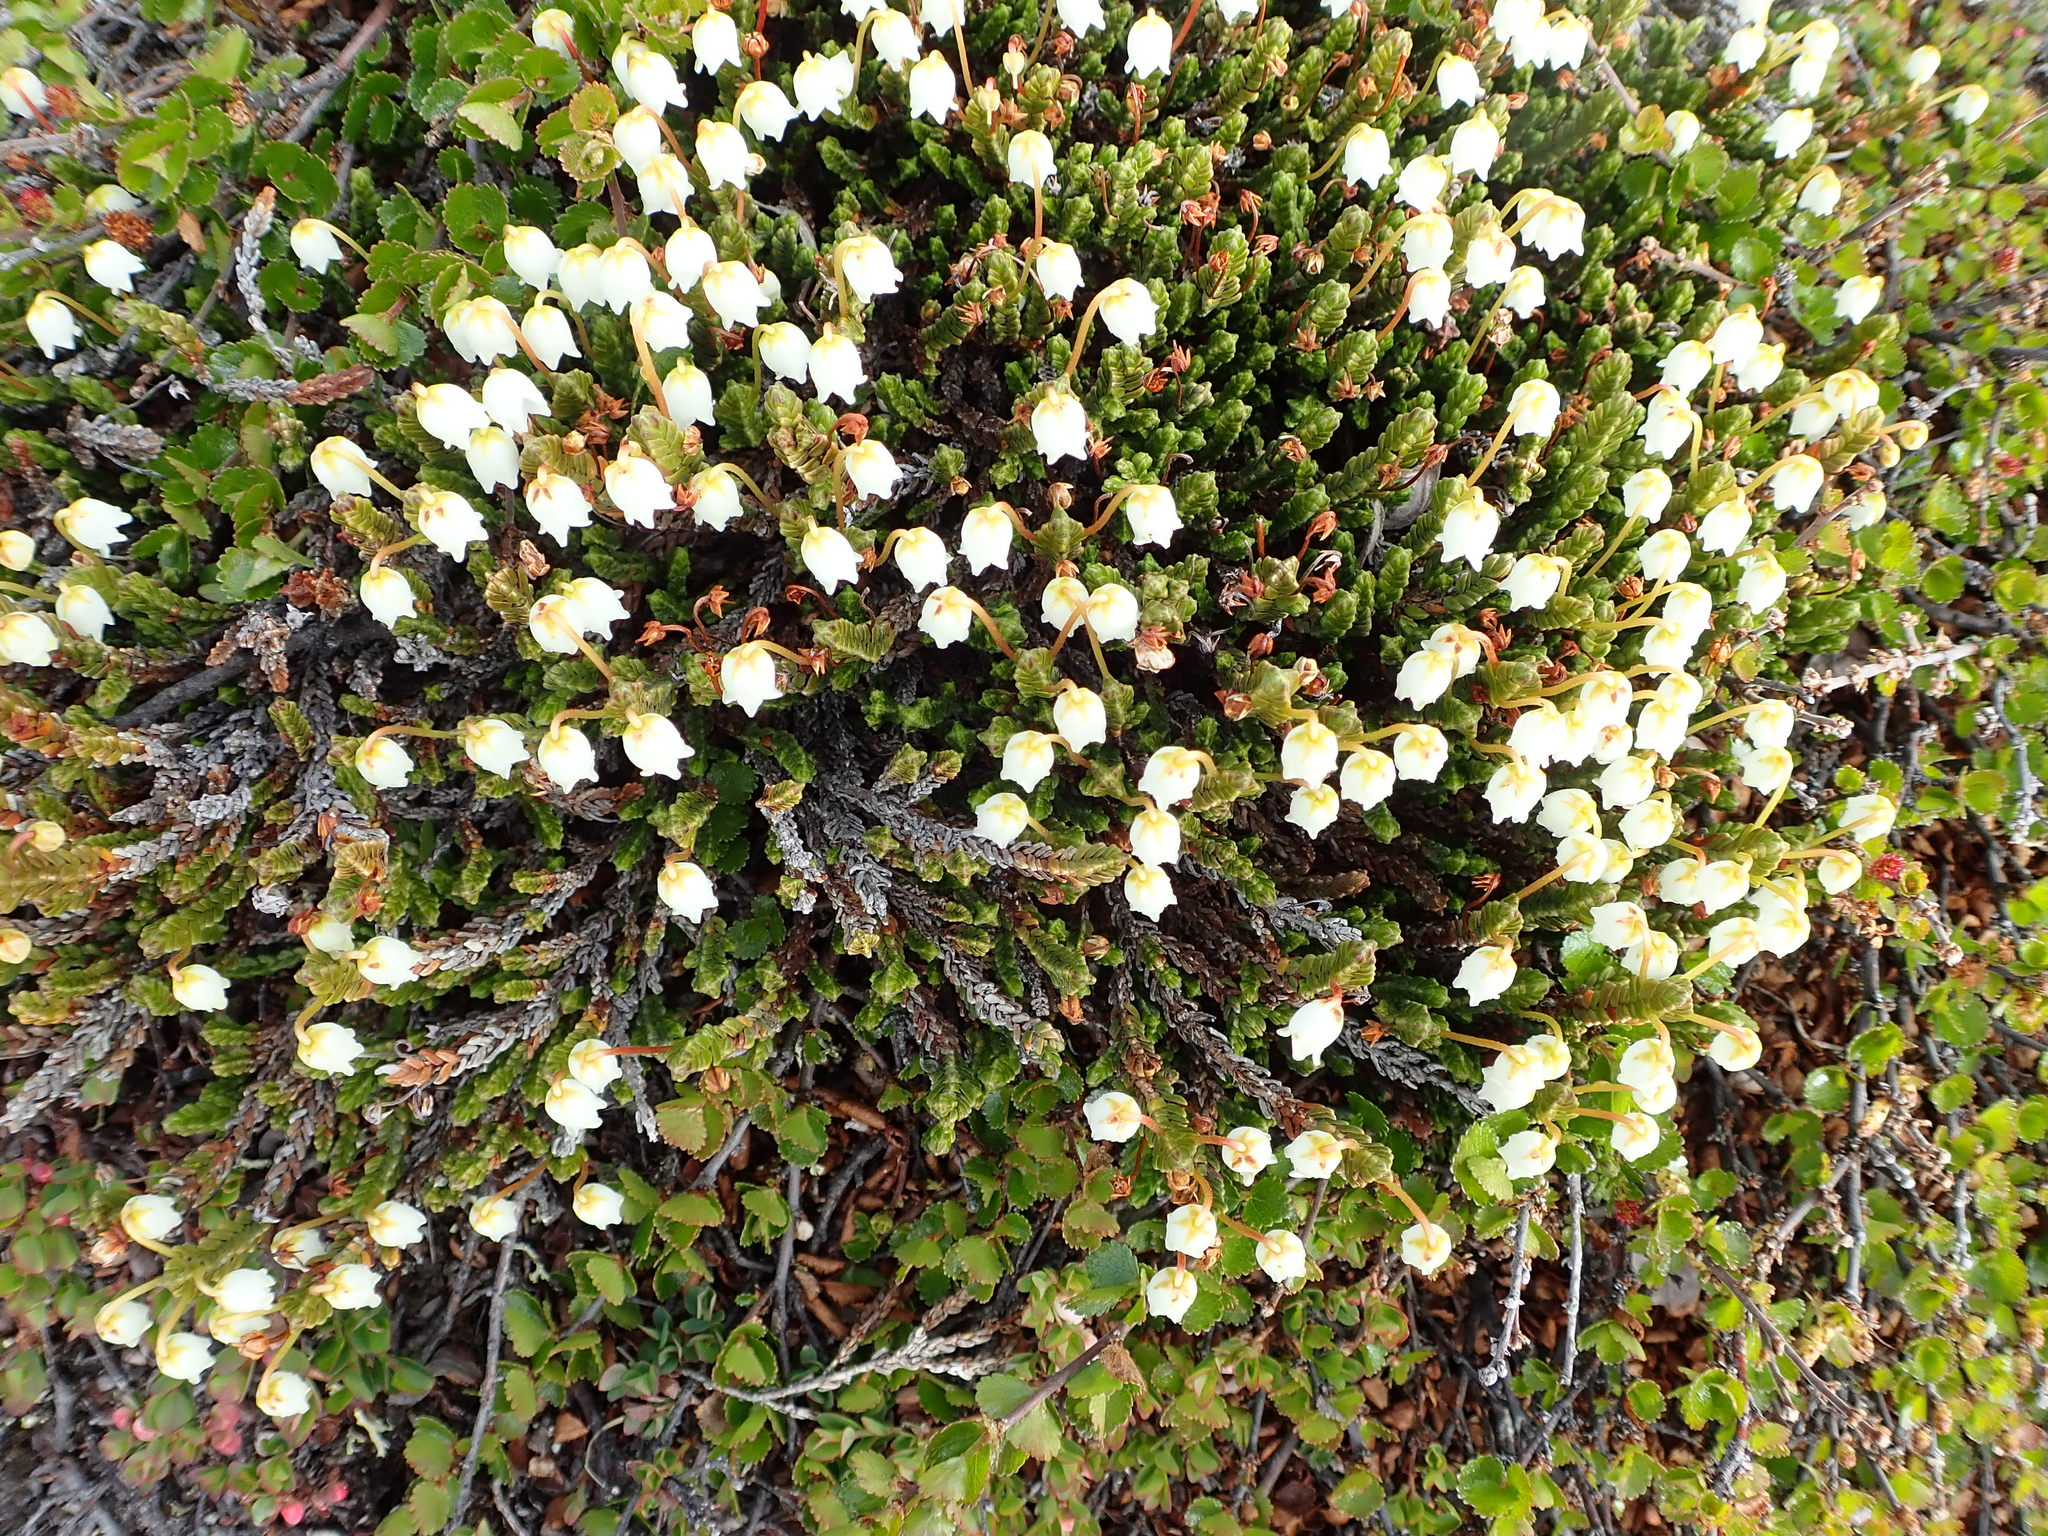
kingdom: Plantae
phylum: Tracheophyta
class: Magnoliopsida
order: Ericales
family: Ericaceae
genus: Cassiope
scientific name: Cassiope tetragona
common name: Arctic bell heather
